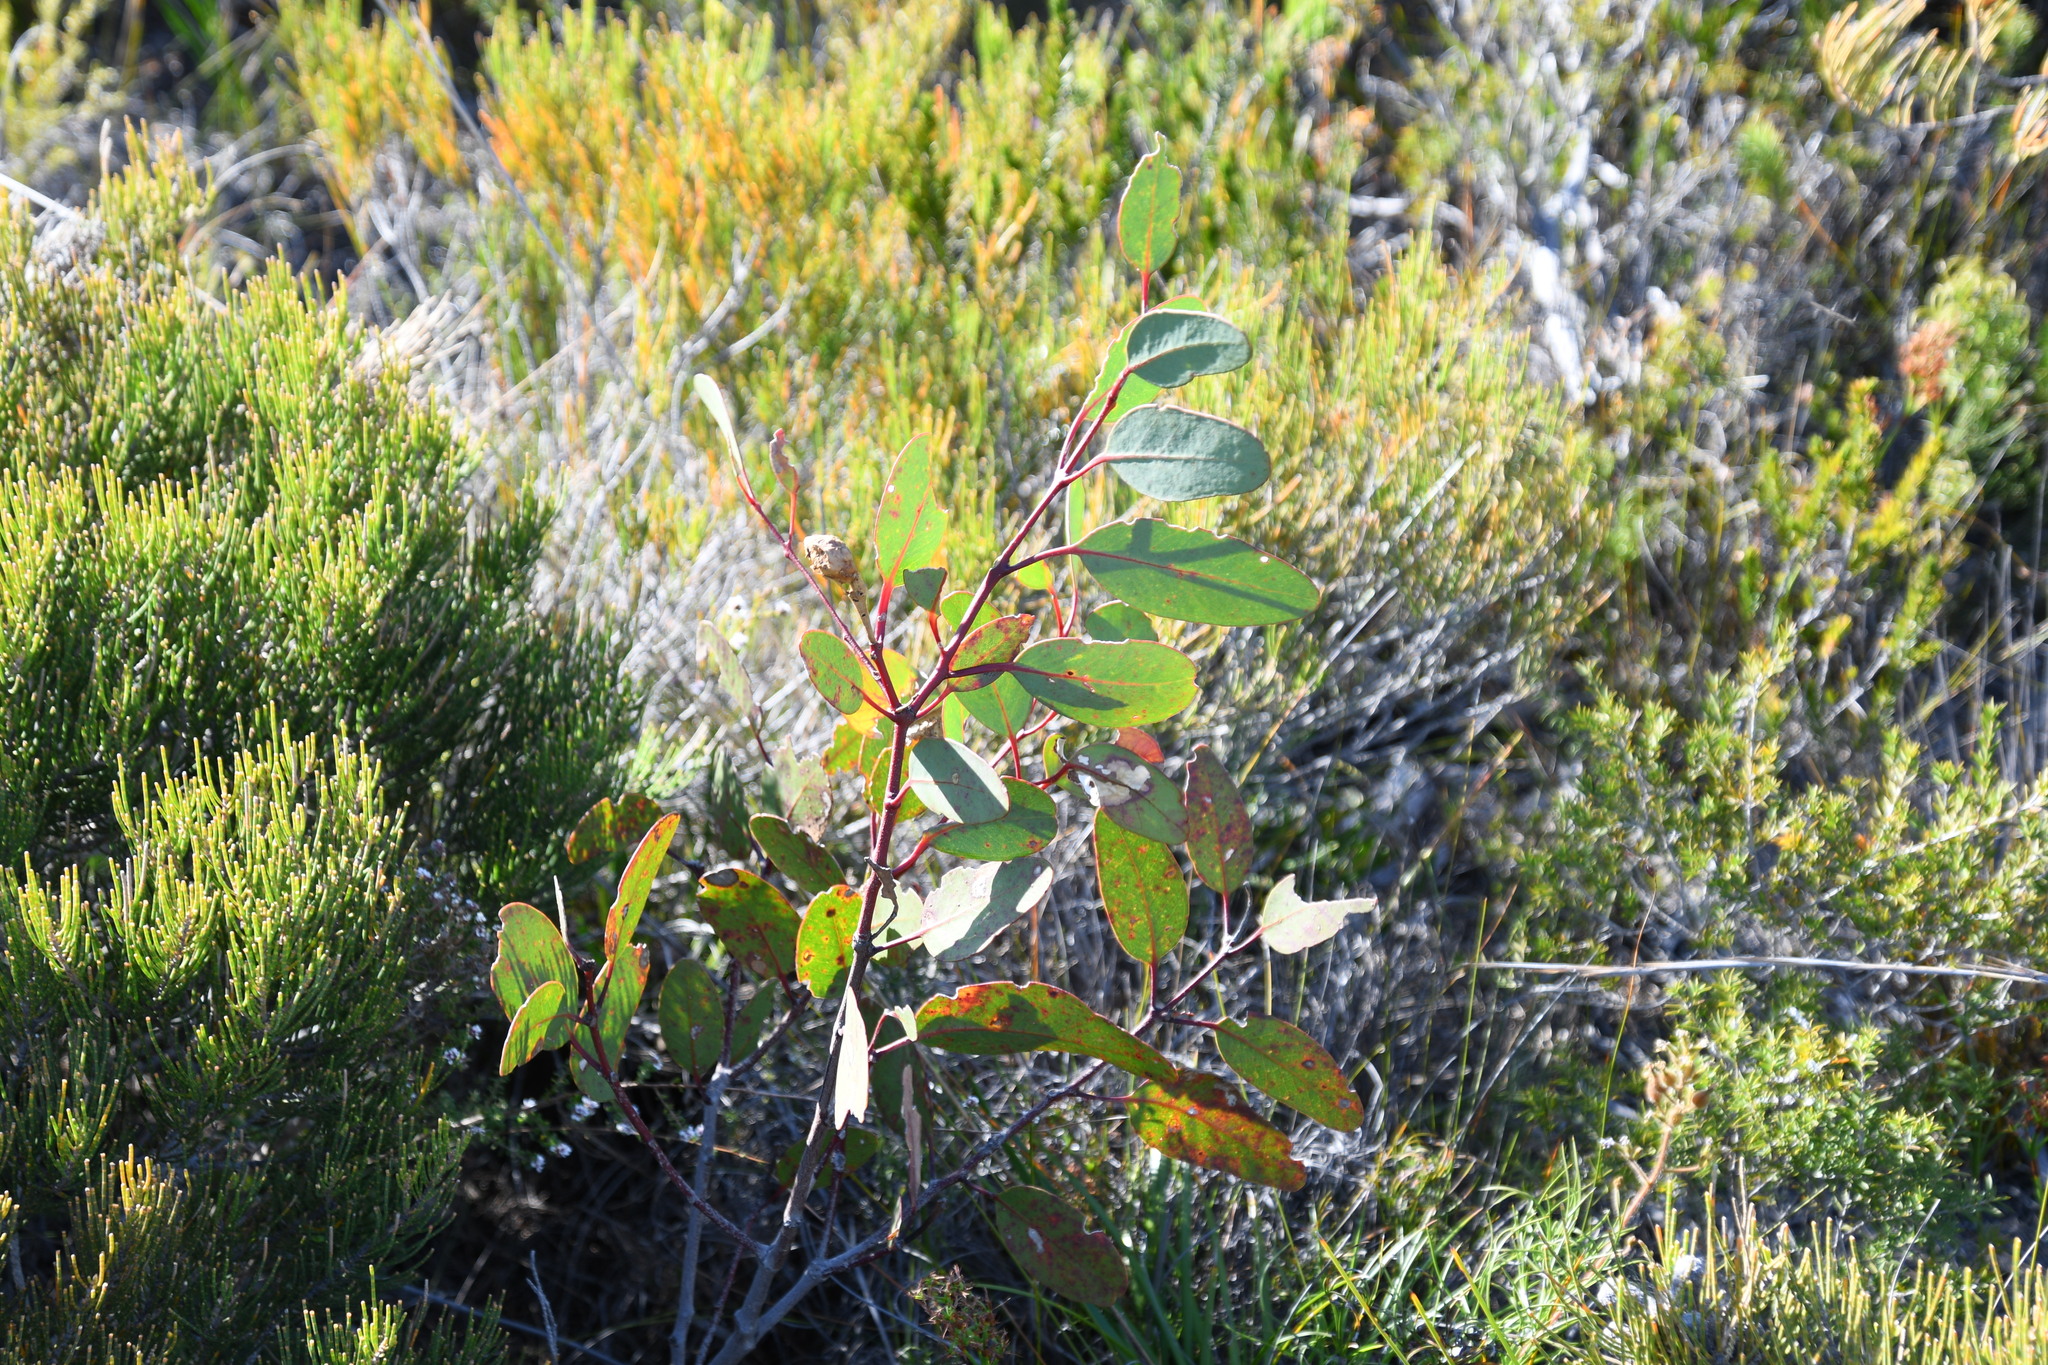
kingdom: Plantae
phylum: Tracheophyta
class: Magnoliopsida
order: Myrtales
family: Myrtaceae
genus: Eucalyptus
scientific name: Eucalyptus preissiana
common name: Stirling range mallee
